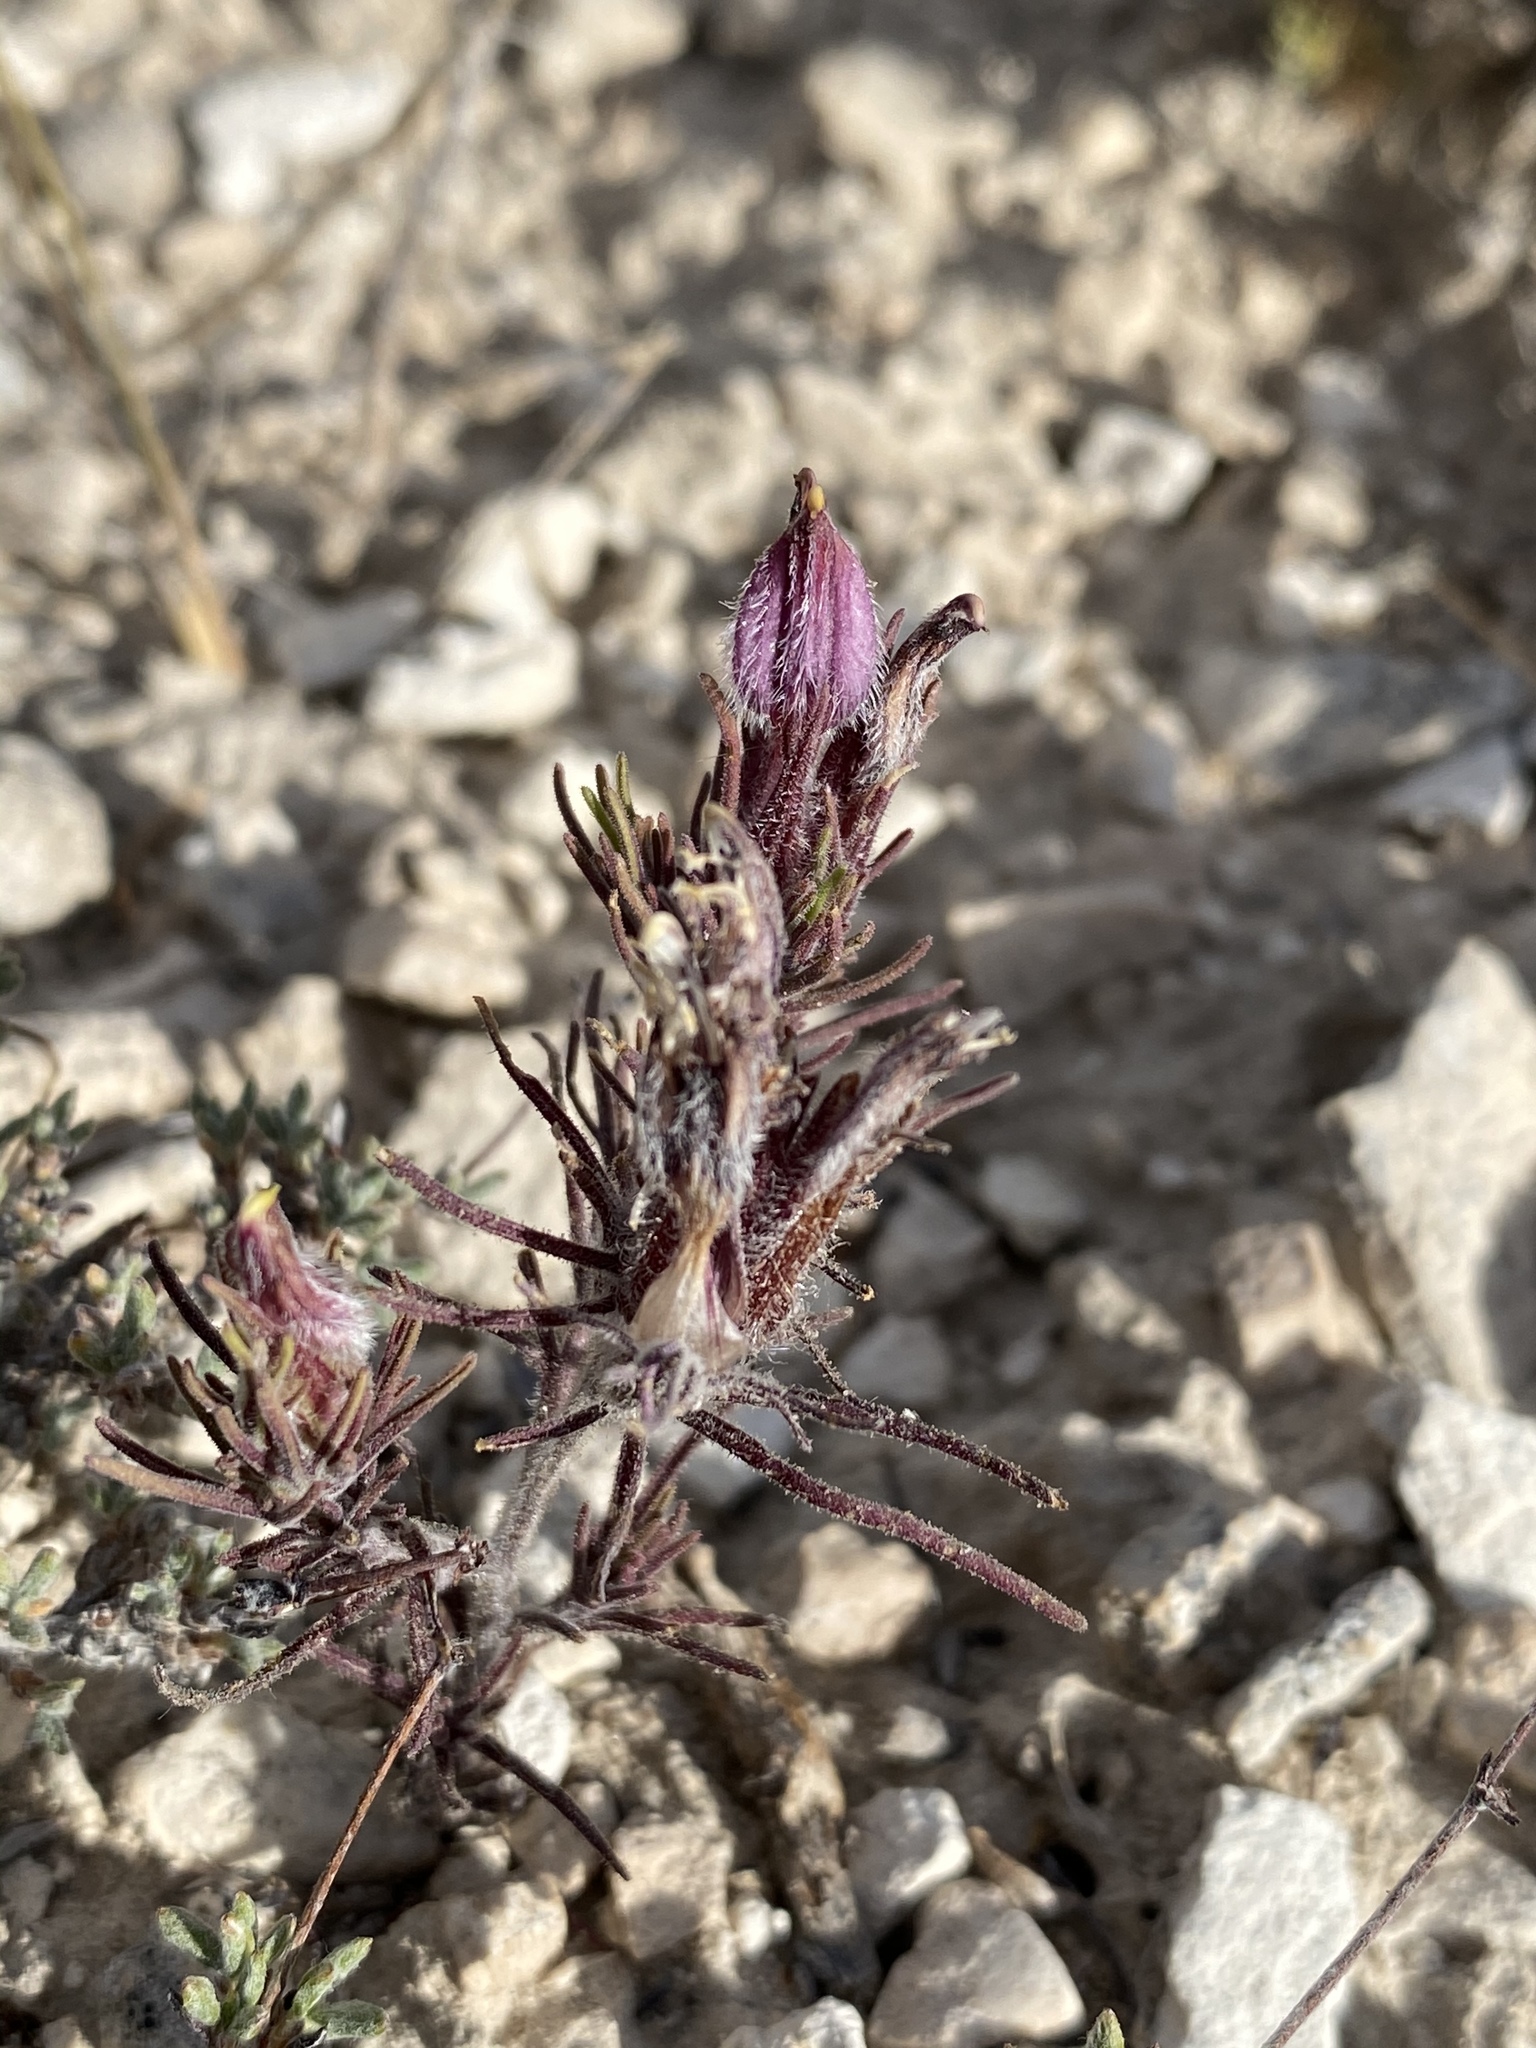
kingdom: Plantae
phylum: Tracheophyta
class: Magnoliopsida
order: Lamiales
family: Orobanchaceae
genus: Cordylanthus
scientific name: Cordylanthus kingii
